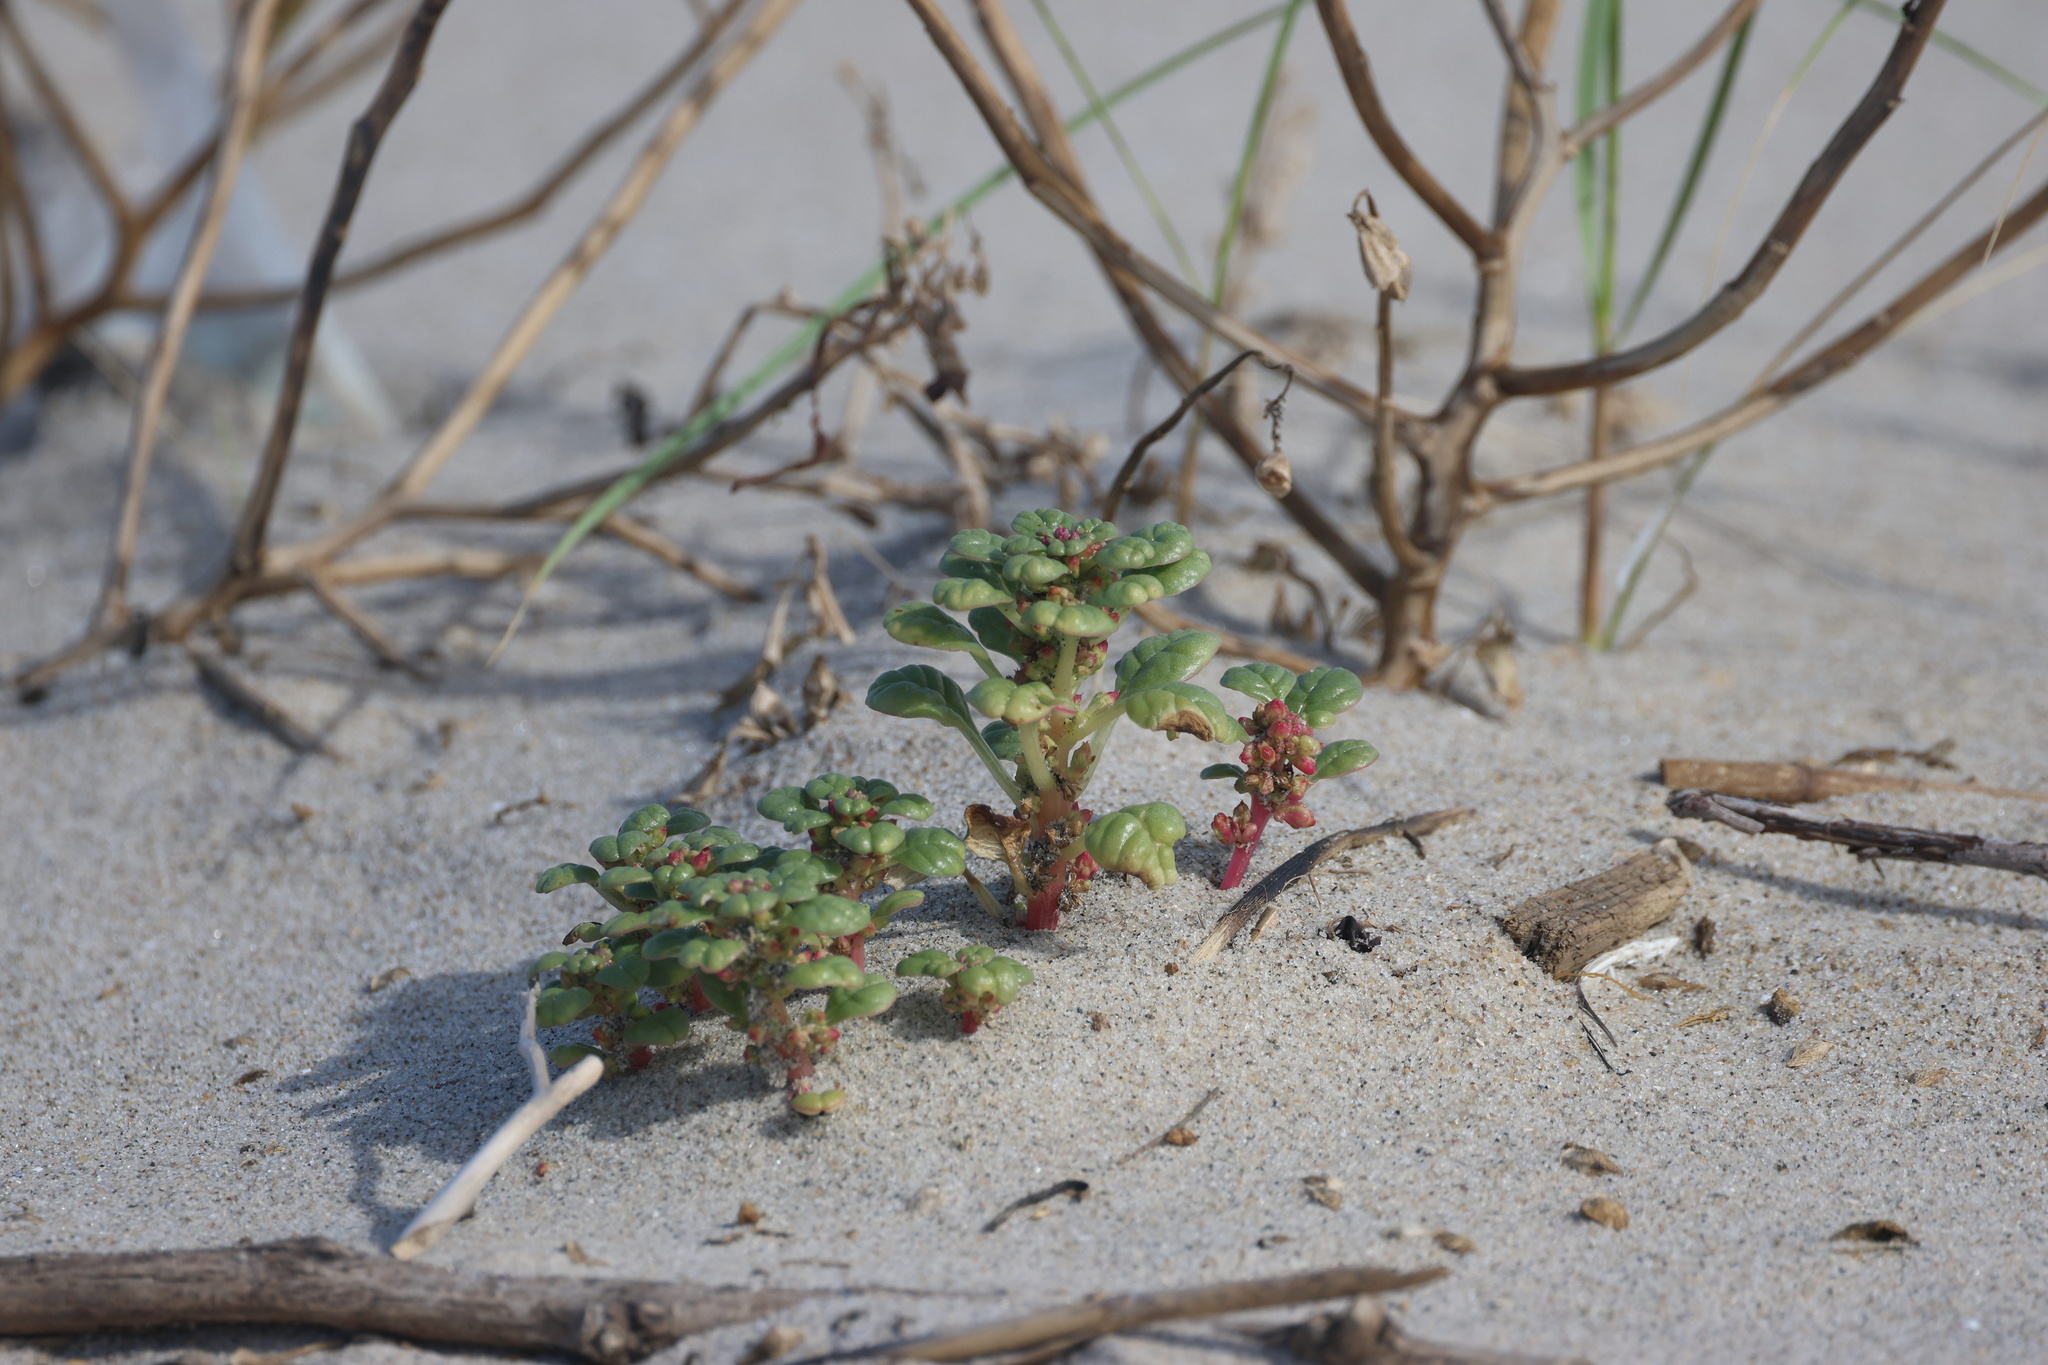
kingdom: Plantae
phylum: Tracheophyta
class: Magnoliopsida
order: Caryophyllales
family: Amaranthaceae
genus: Amaranthus
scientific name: Amaranthus pumilus
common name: Coast amaranth
